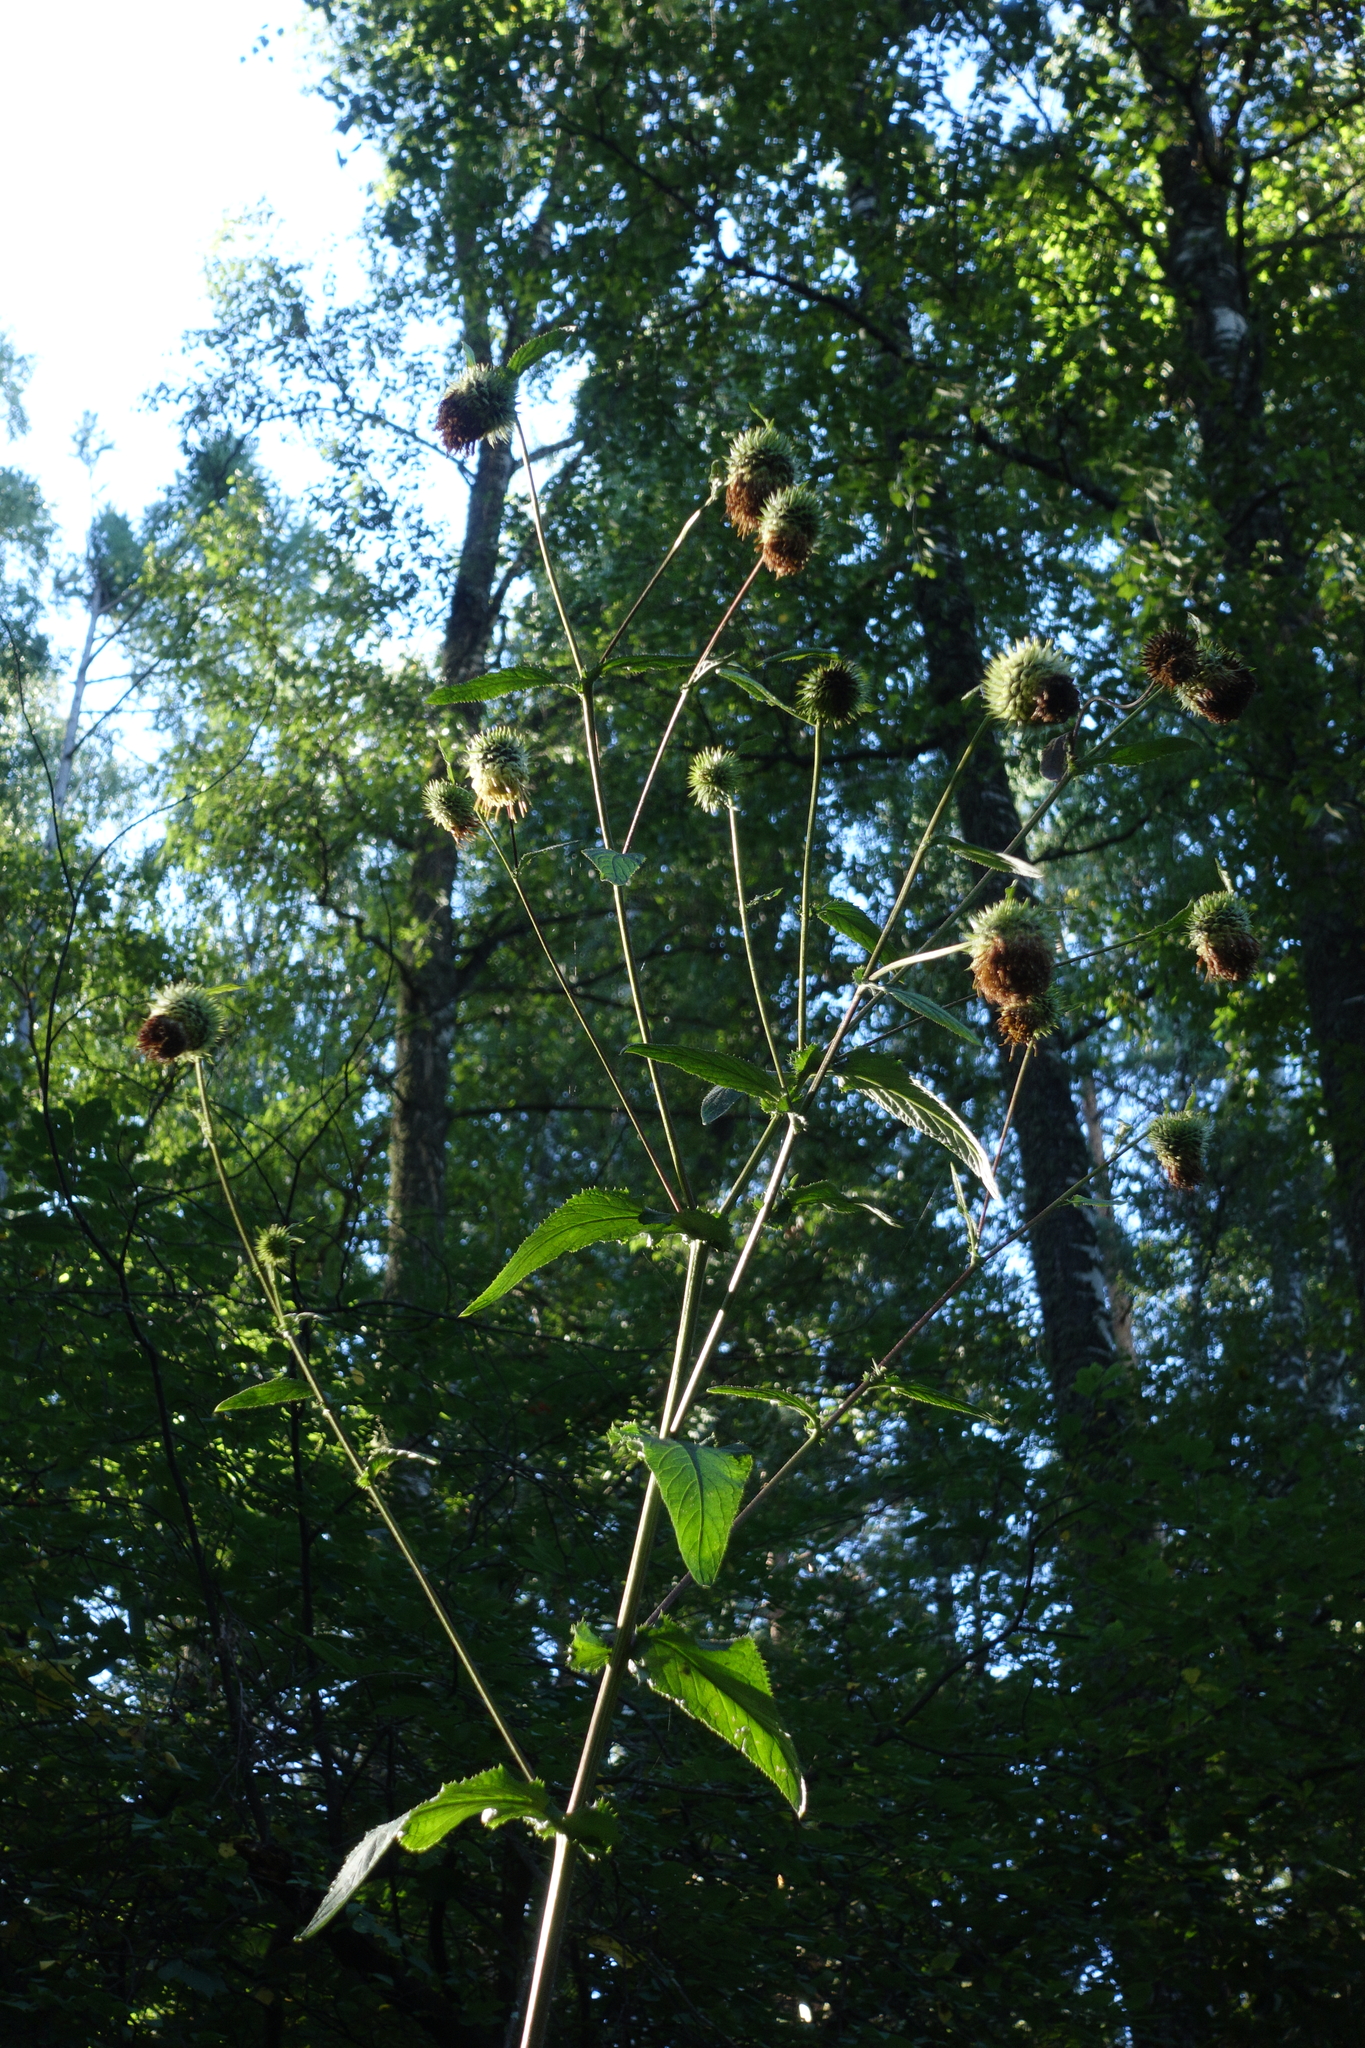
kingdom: Plantae
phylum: Tracheophyta
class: Magnoliopsida
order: Asterales
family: Asteraceae
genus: Alfredia
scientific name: Alfredia cernua
